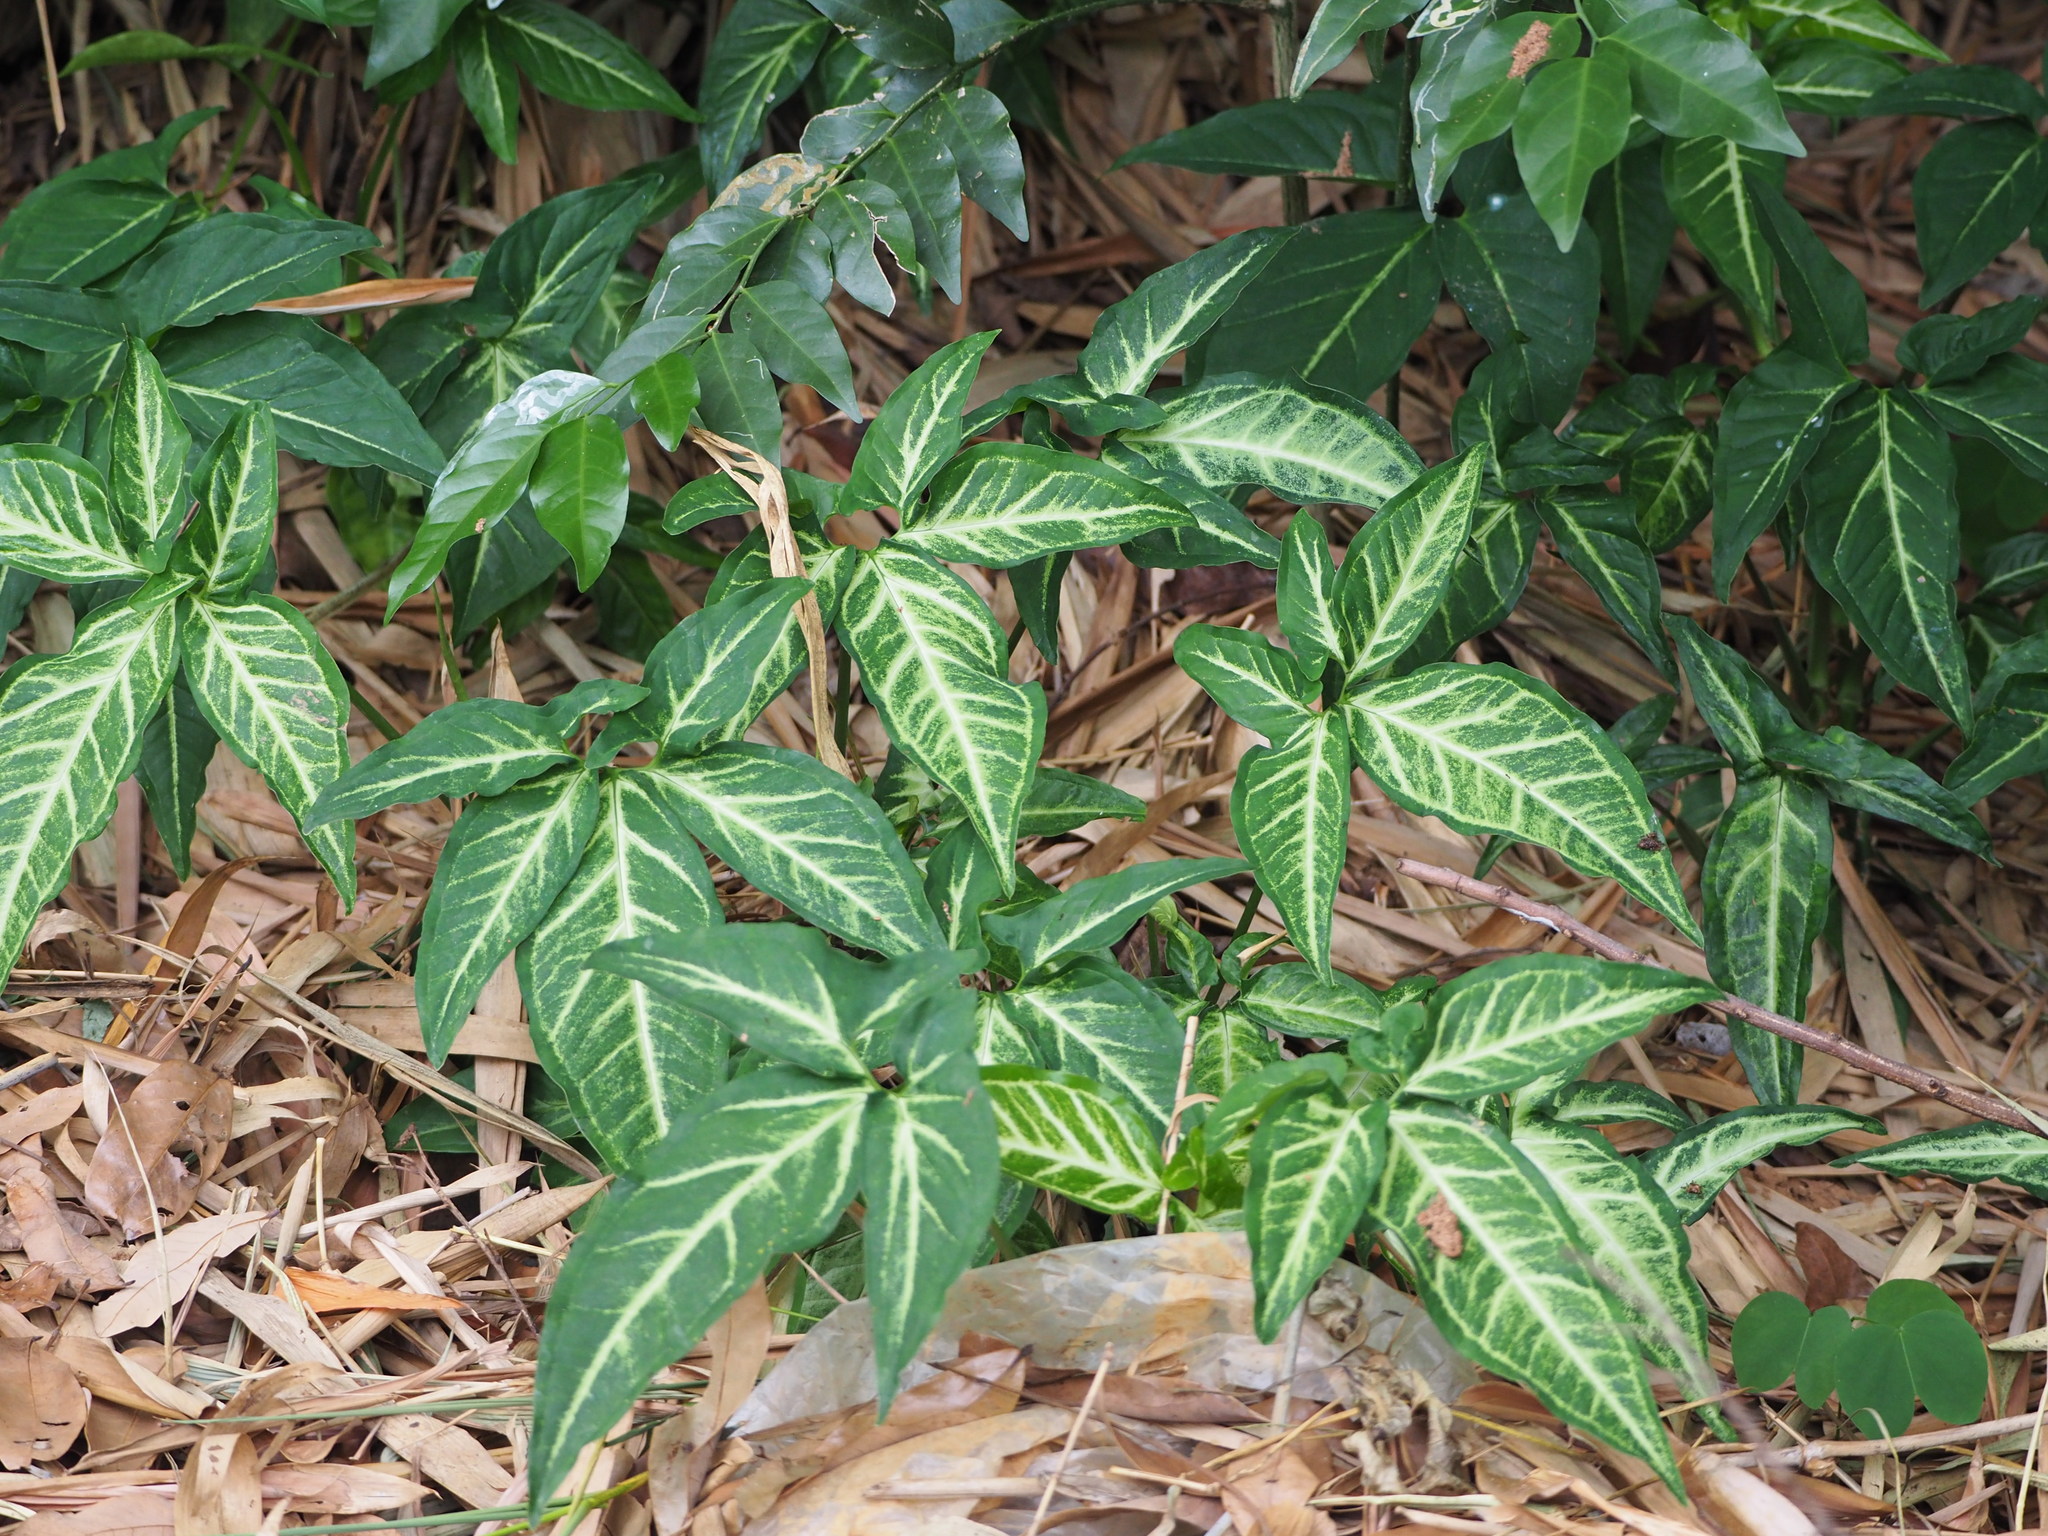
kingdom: Plantae
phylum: Tracheophyta
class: Liliopsida
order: Alismatales
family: Araceae
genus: Syngonium
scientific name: Syngonium podophyllum
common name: American evergreen
